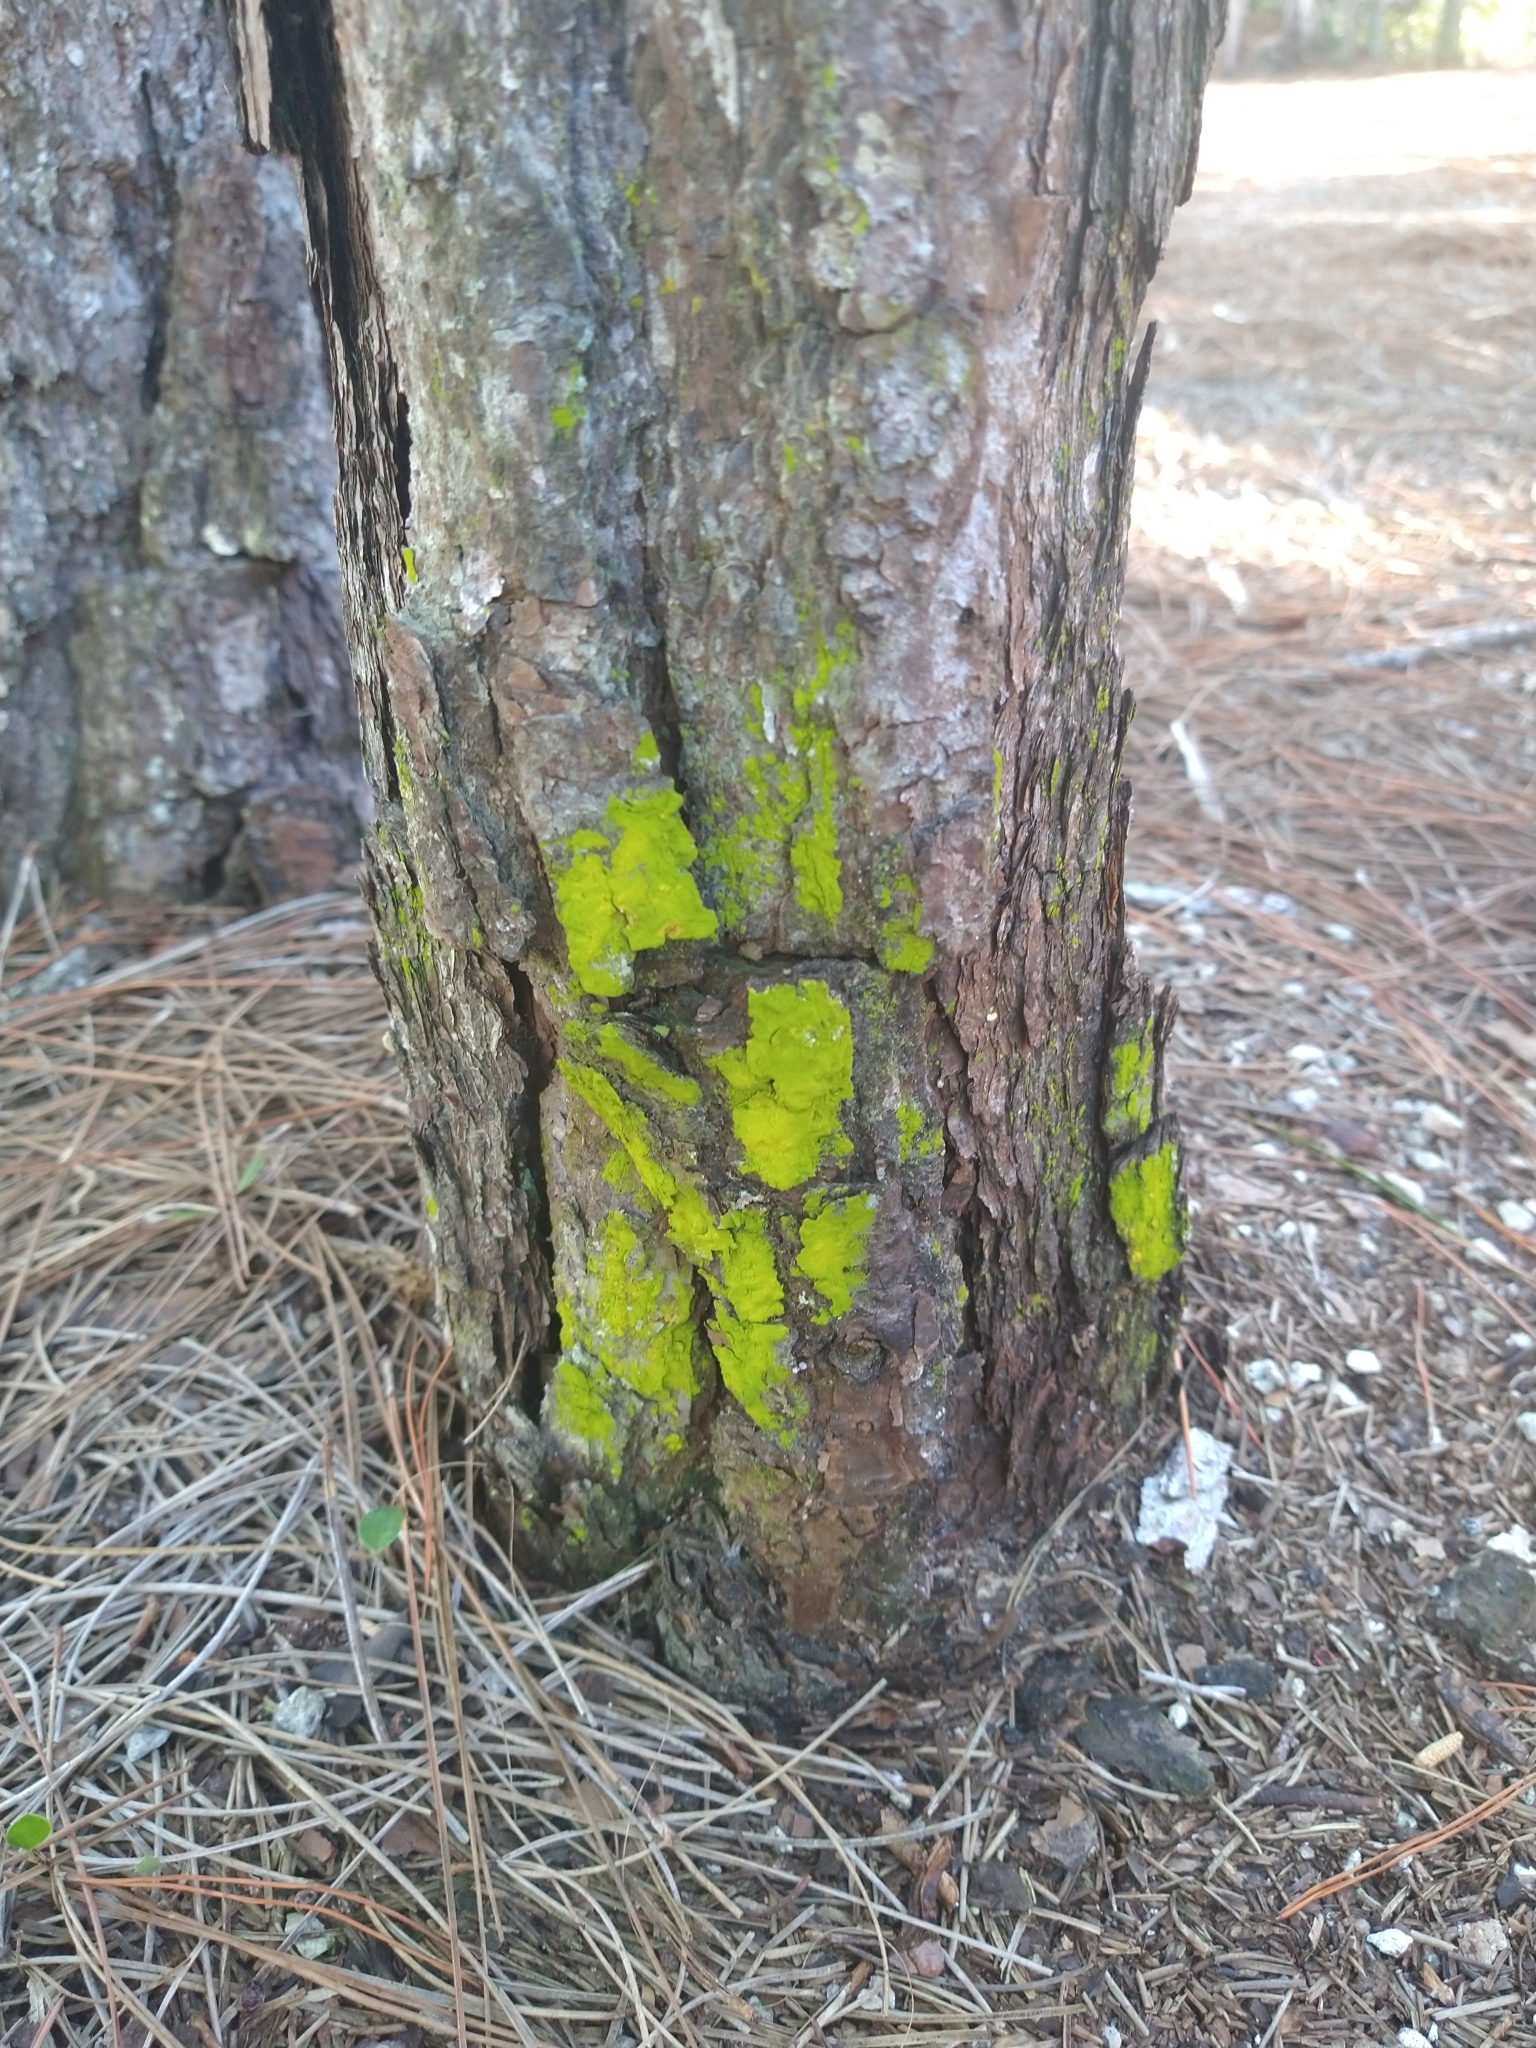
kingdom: Fungi
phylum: Ascomycota
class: Arthoniomycetes
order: Arthoniales
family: Chrysotrichaceae
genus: Chrysothrix
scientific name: Chrysothrix
